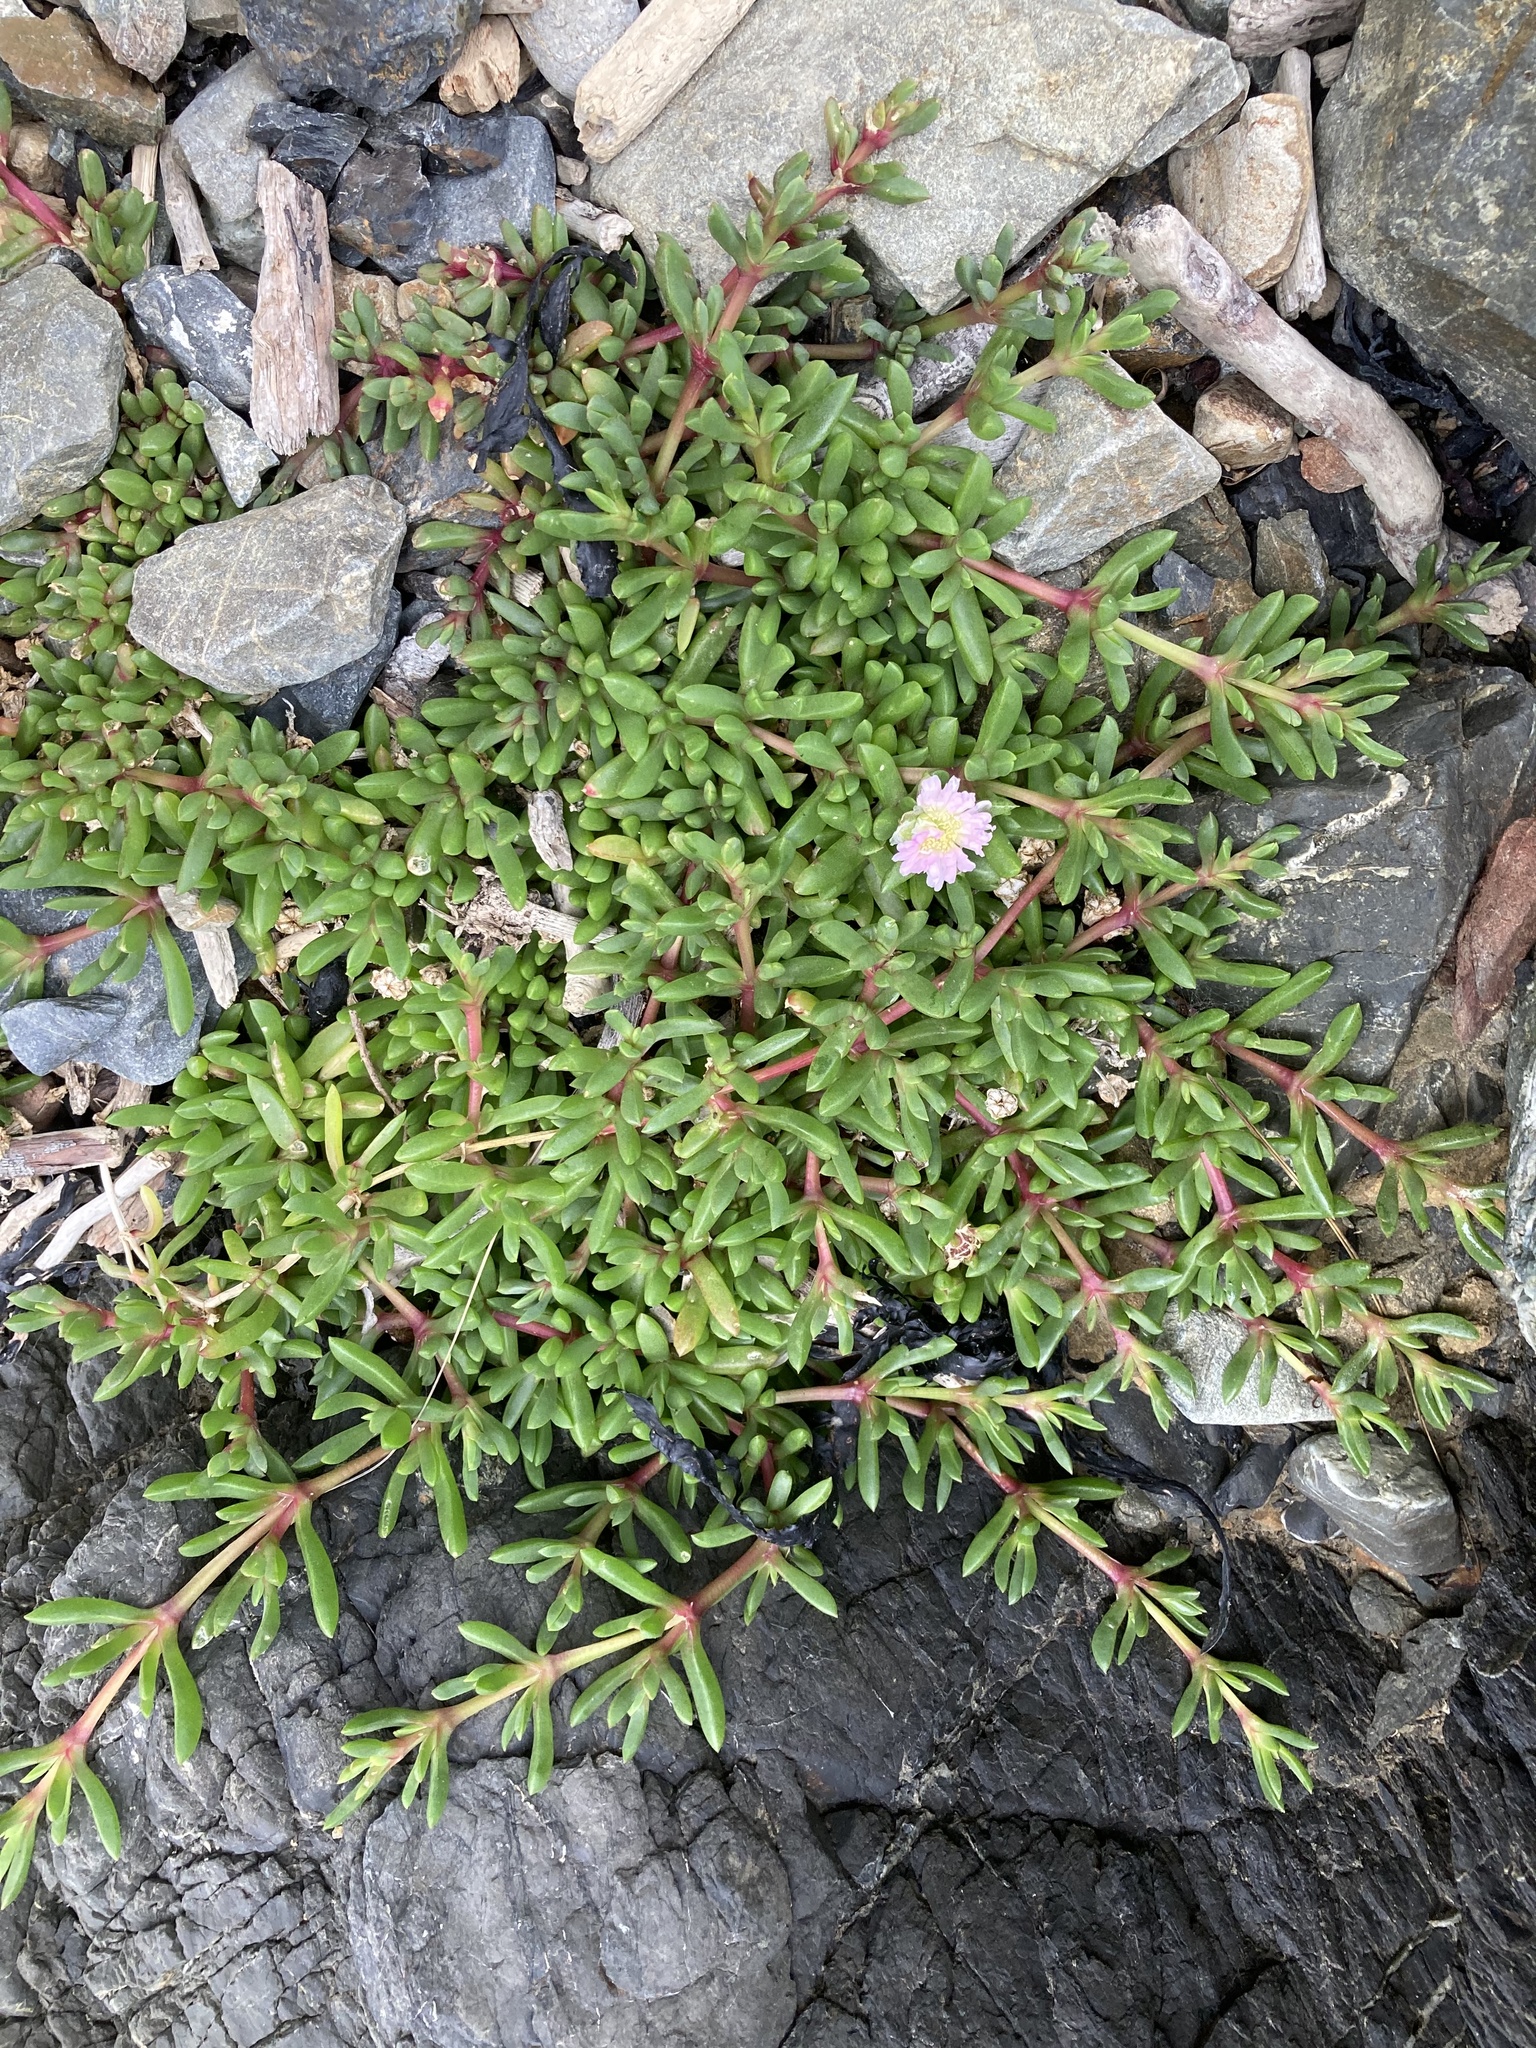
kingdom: Plantae
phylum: Tracheophyta
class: Magnoliopsida
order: Caryophyllales
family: Aizoaceae
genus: Disphyma
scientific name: Disphyma australe
